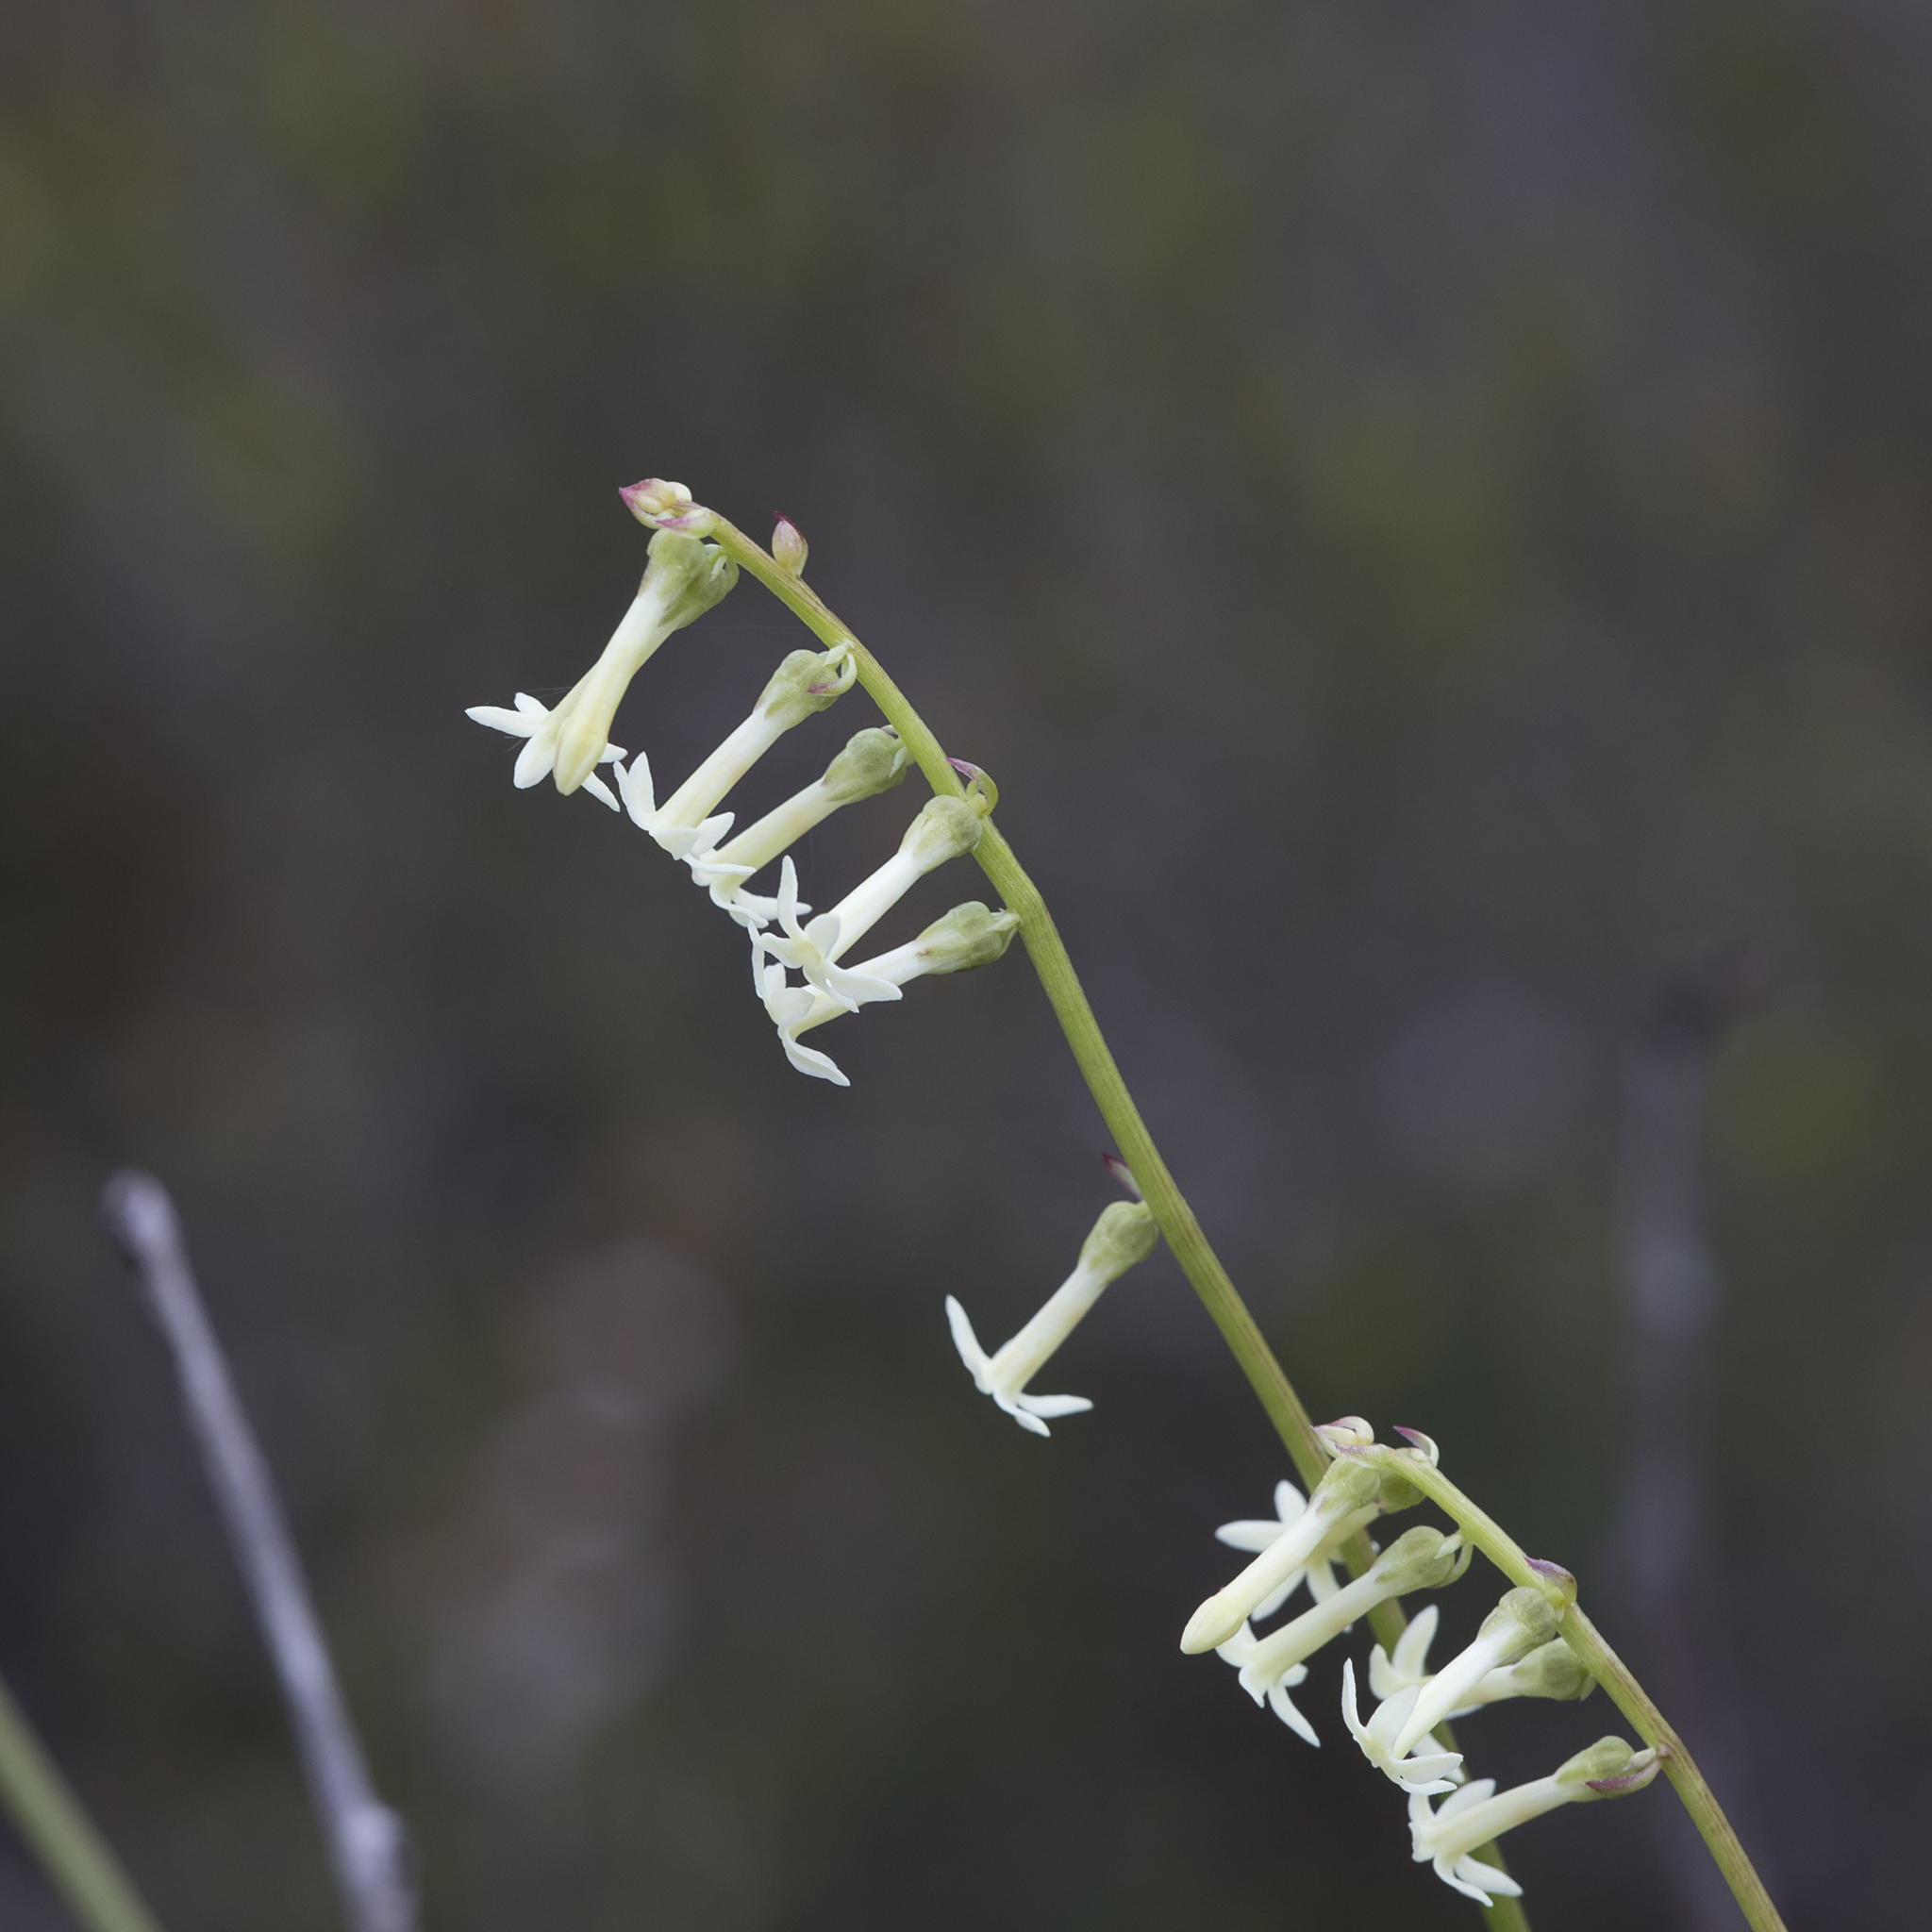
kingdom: Plantae
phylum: Tracheophyta
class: Magnoliopsida
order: Celastrales
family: Celastraceae
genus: Stackhousia
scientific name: Stackhousia monogyna
